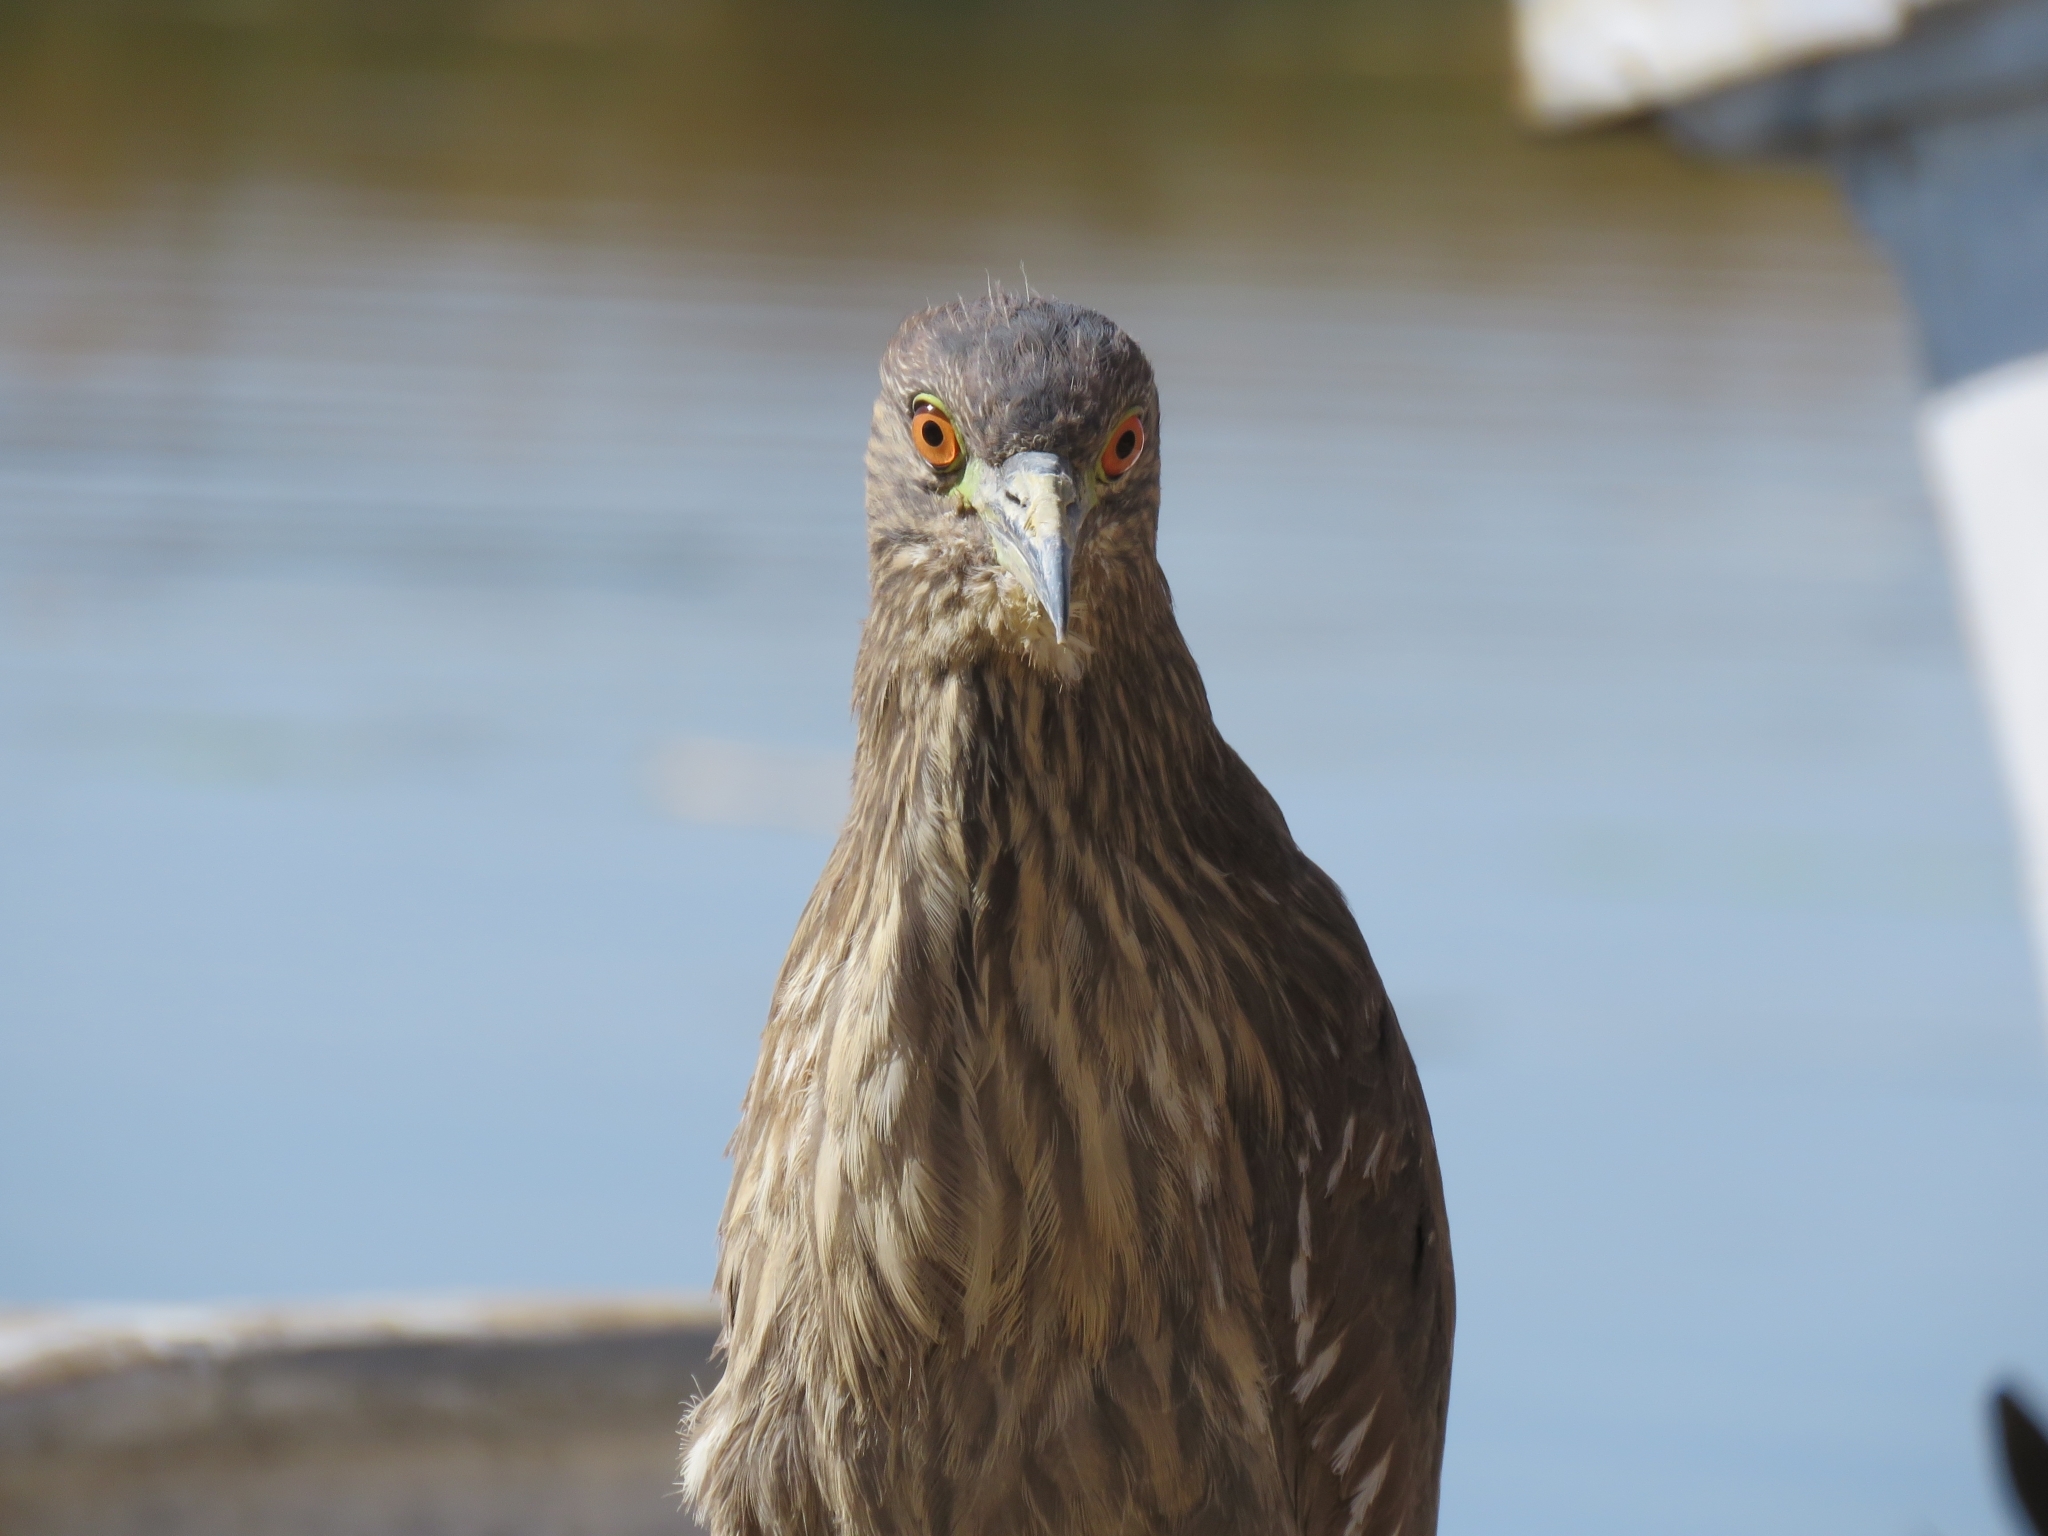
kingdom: Animalia
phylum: Chordata
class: Aves
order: Pelecaniformes
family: Ardeidae
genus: Nycticorax
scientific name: Nycticorax nycticorax
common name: Black-crowned night heron
